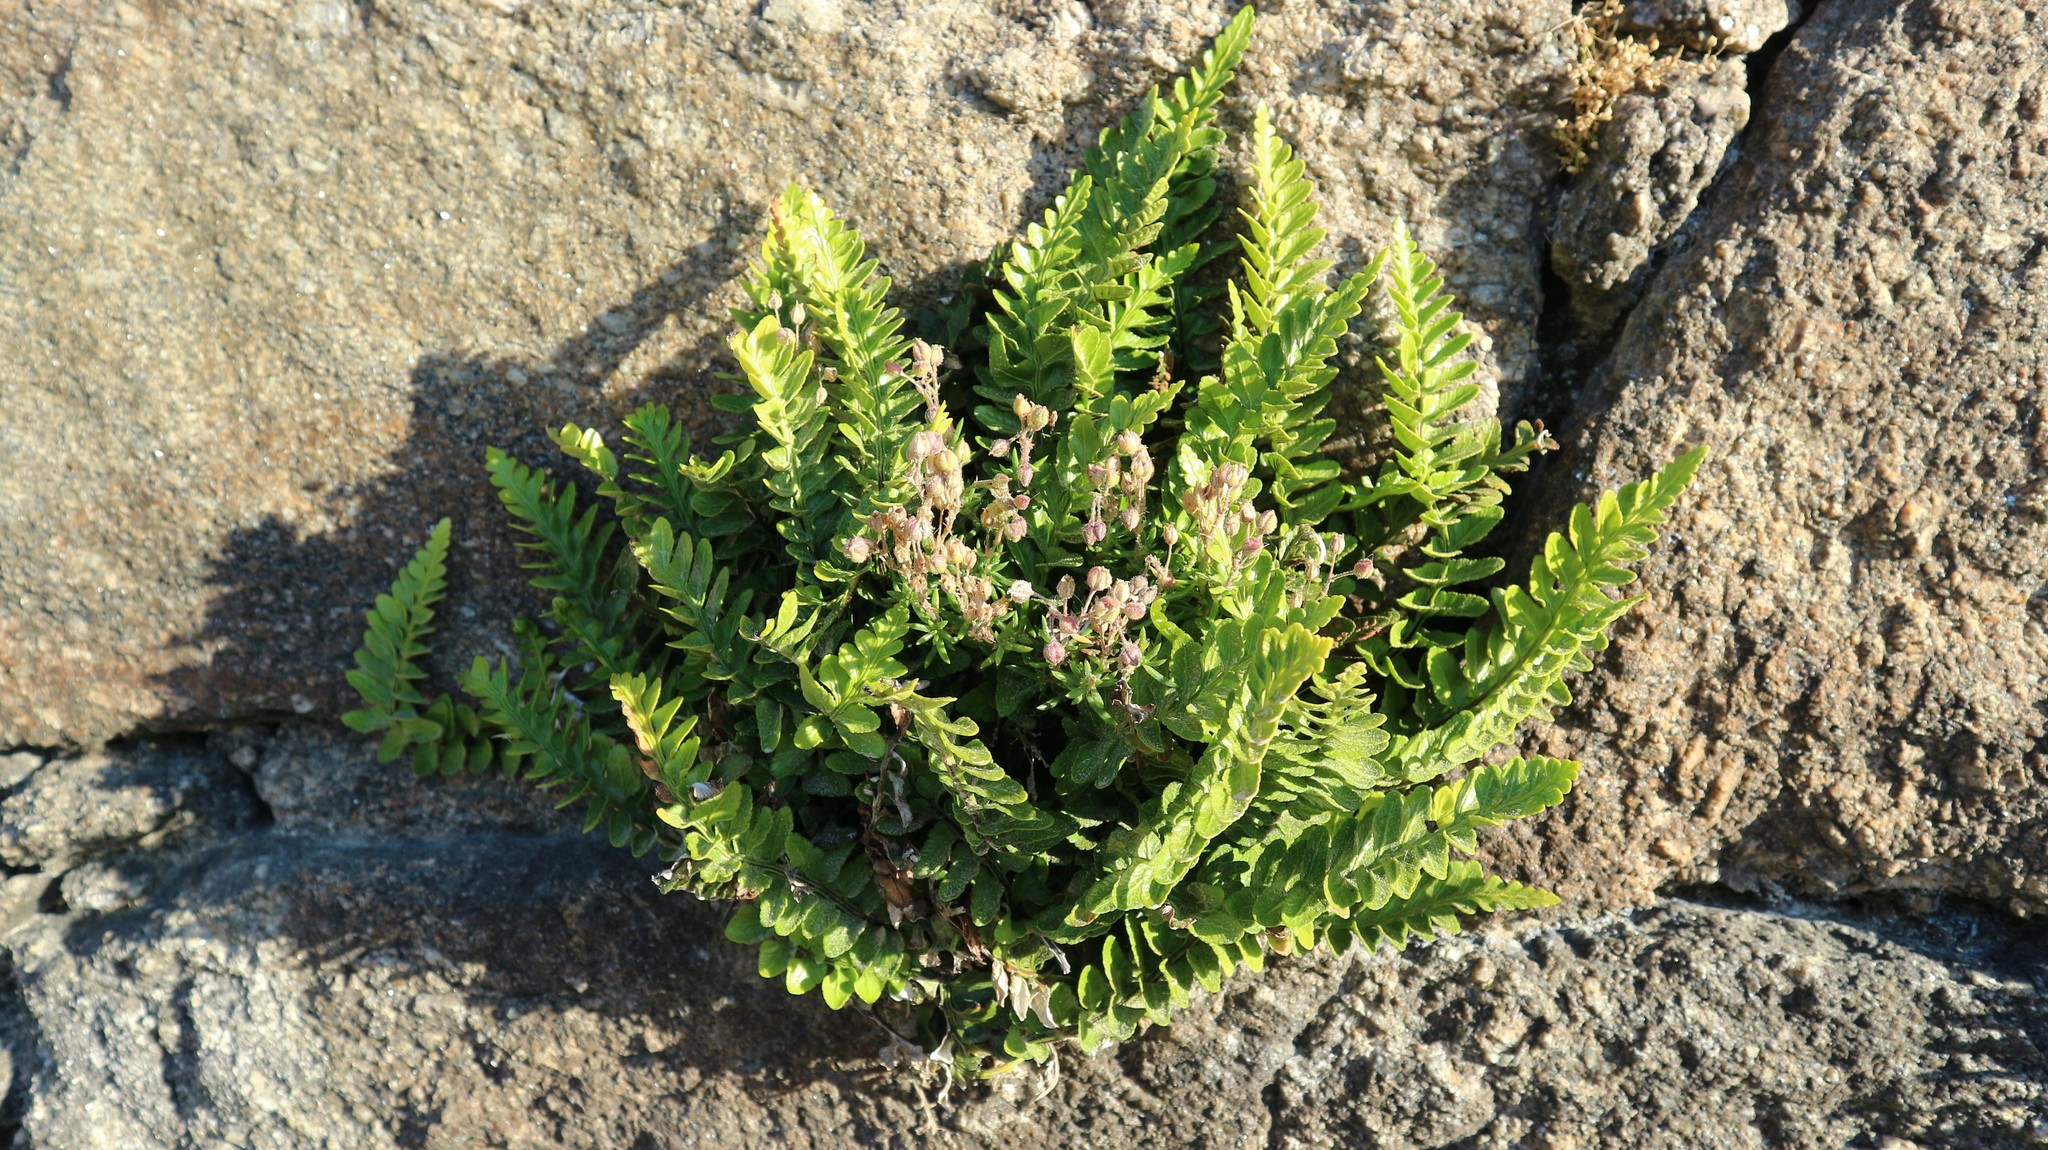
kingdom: Plantae
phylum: Tracheophyta
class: Polypodiopsida
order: Polypodiales
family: Aspleniaceae
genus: Asplenium
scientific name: Asplenium marinum
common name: Sea spleenwort
